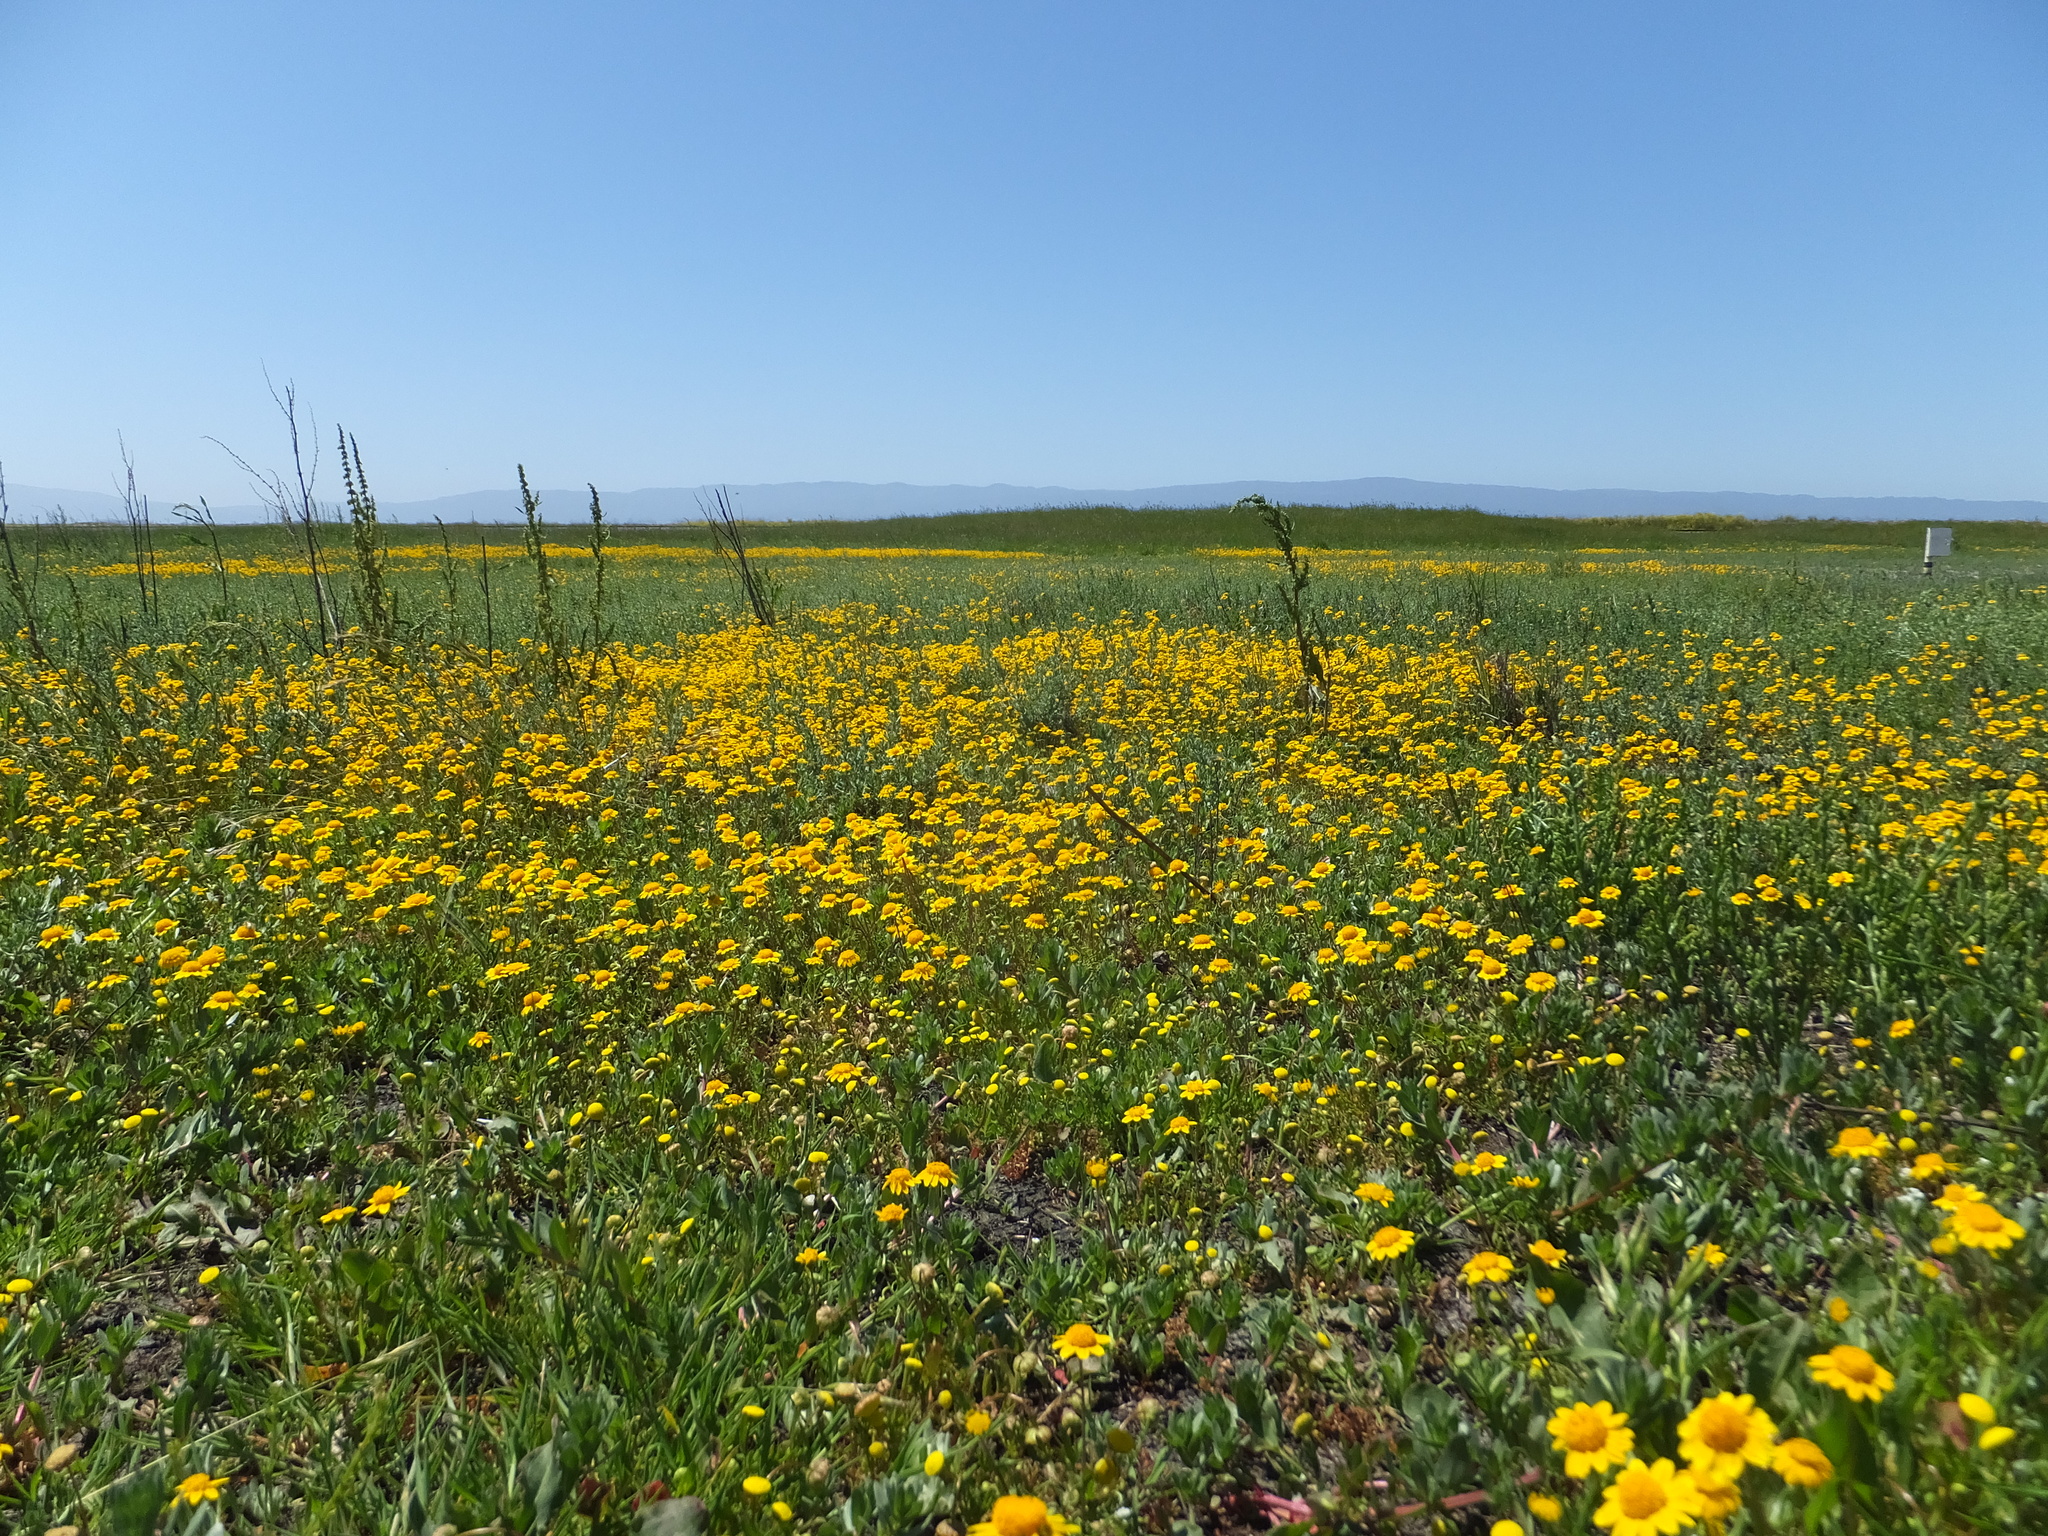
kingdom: Plantae
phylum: Tracheophyta
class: Magnoliopsida
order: Asterales
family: Asteraceae
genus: Lasthenia
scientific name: Lasthenia conjugens
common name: Contra costa goldfields
